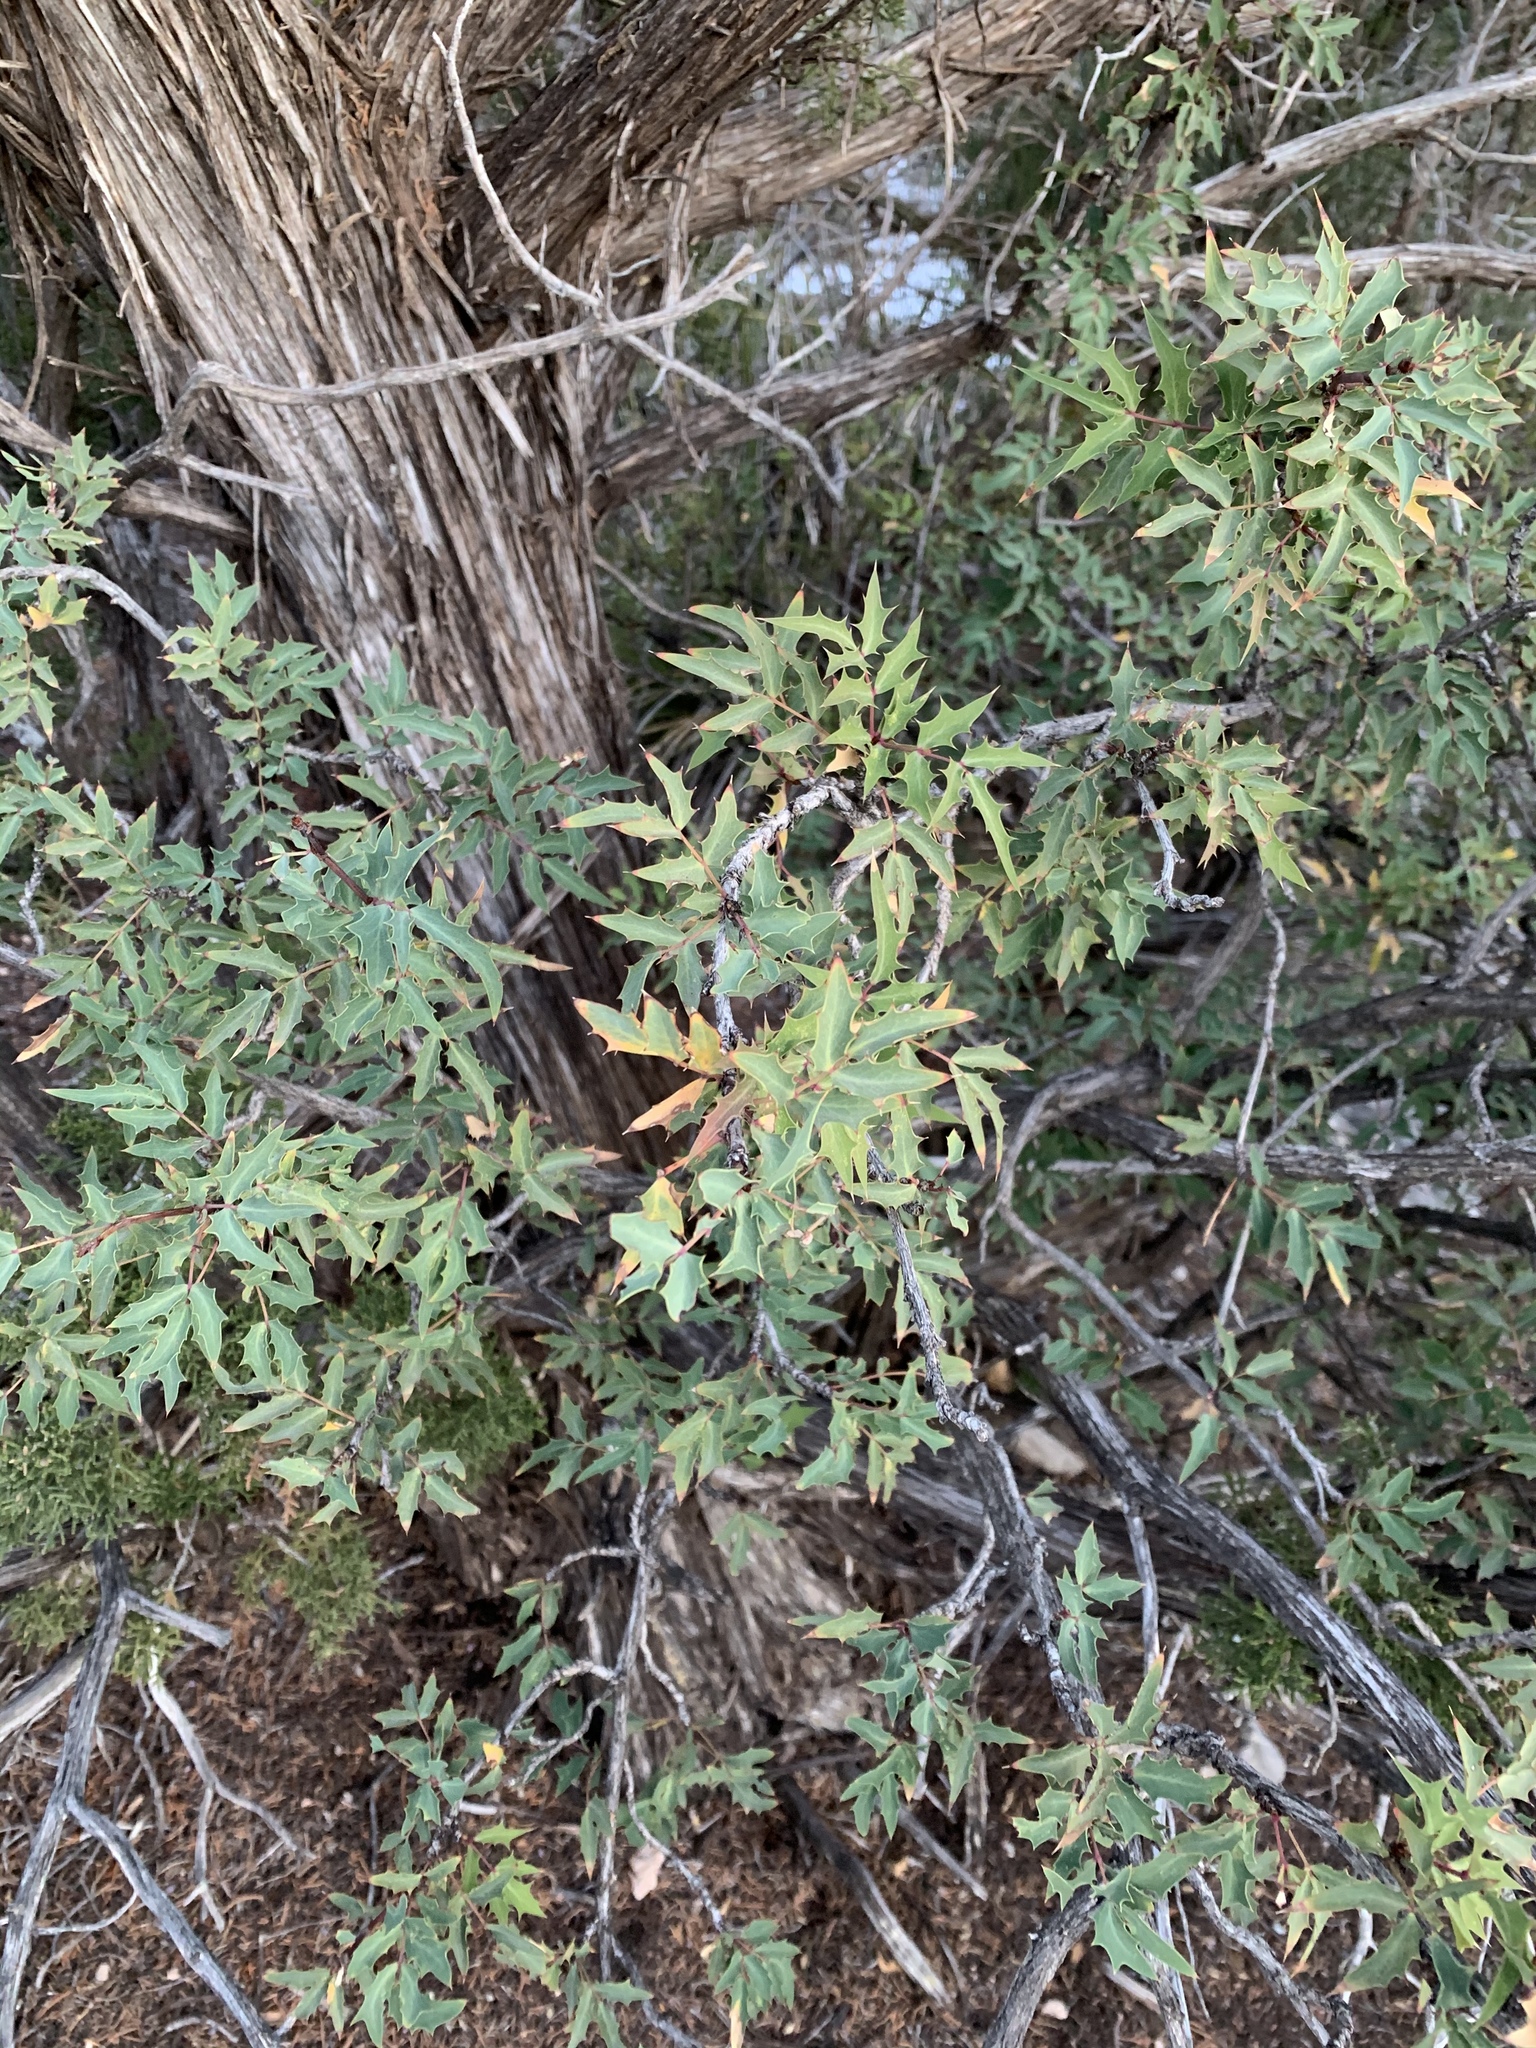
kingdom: Plantae
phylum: Tracheophyta
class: Magnoliopsida
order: Ranunculales
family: Berberidaceae
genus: Alloberberis
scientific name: Alloberberis haematocarpa
